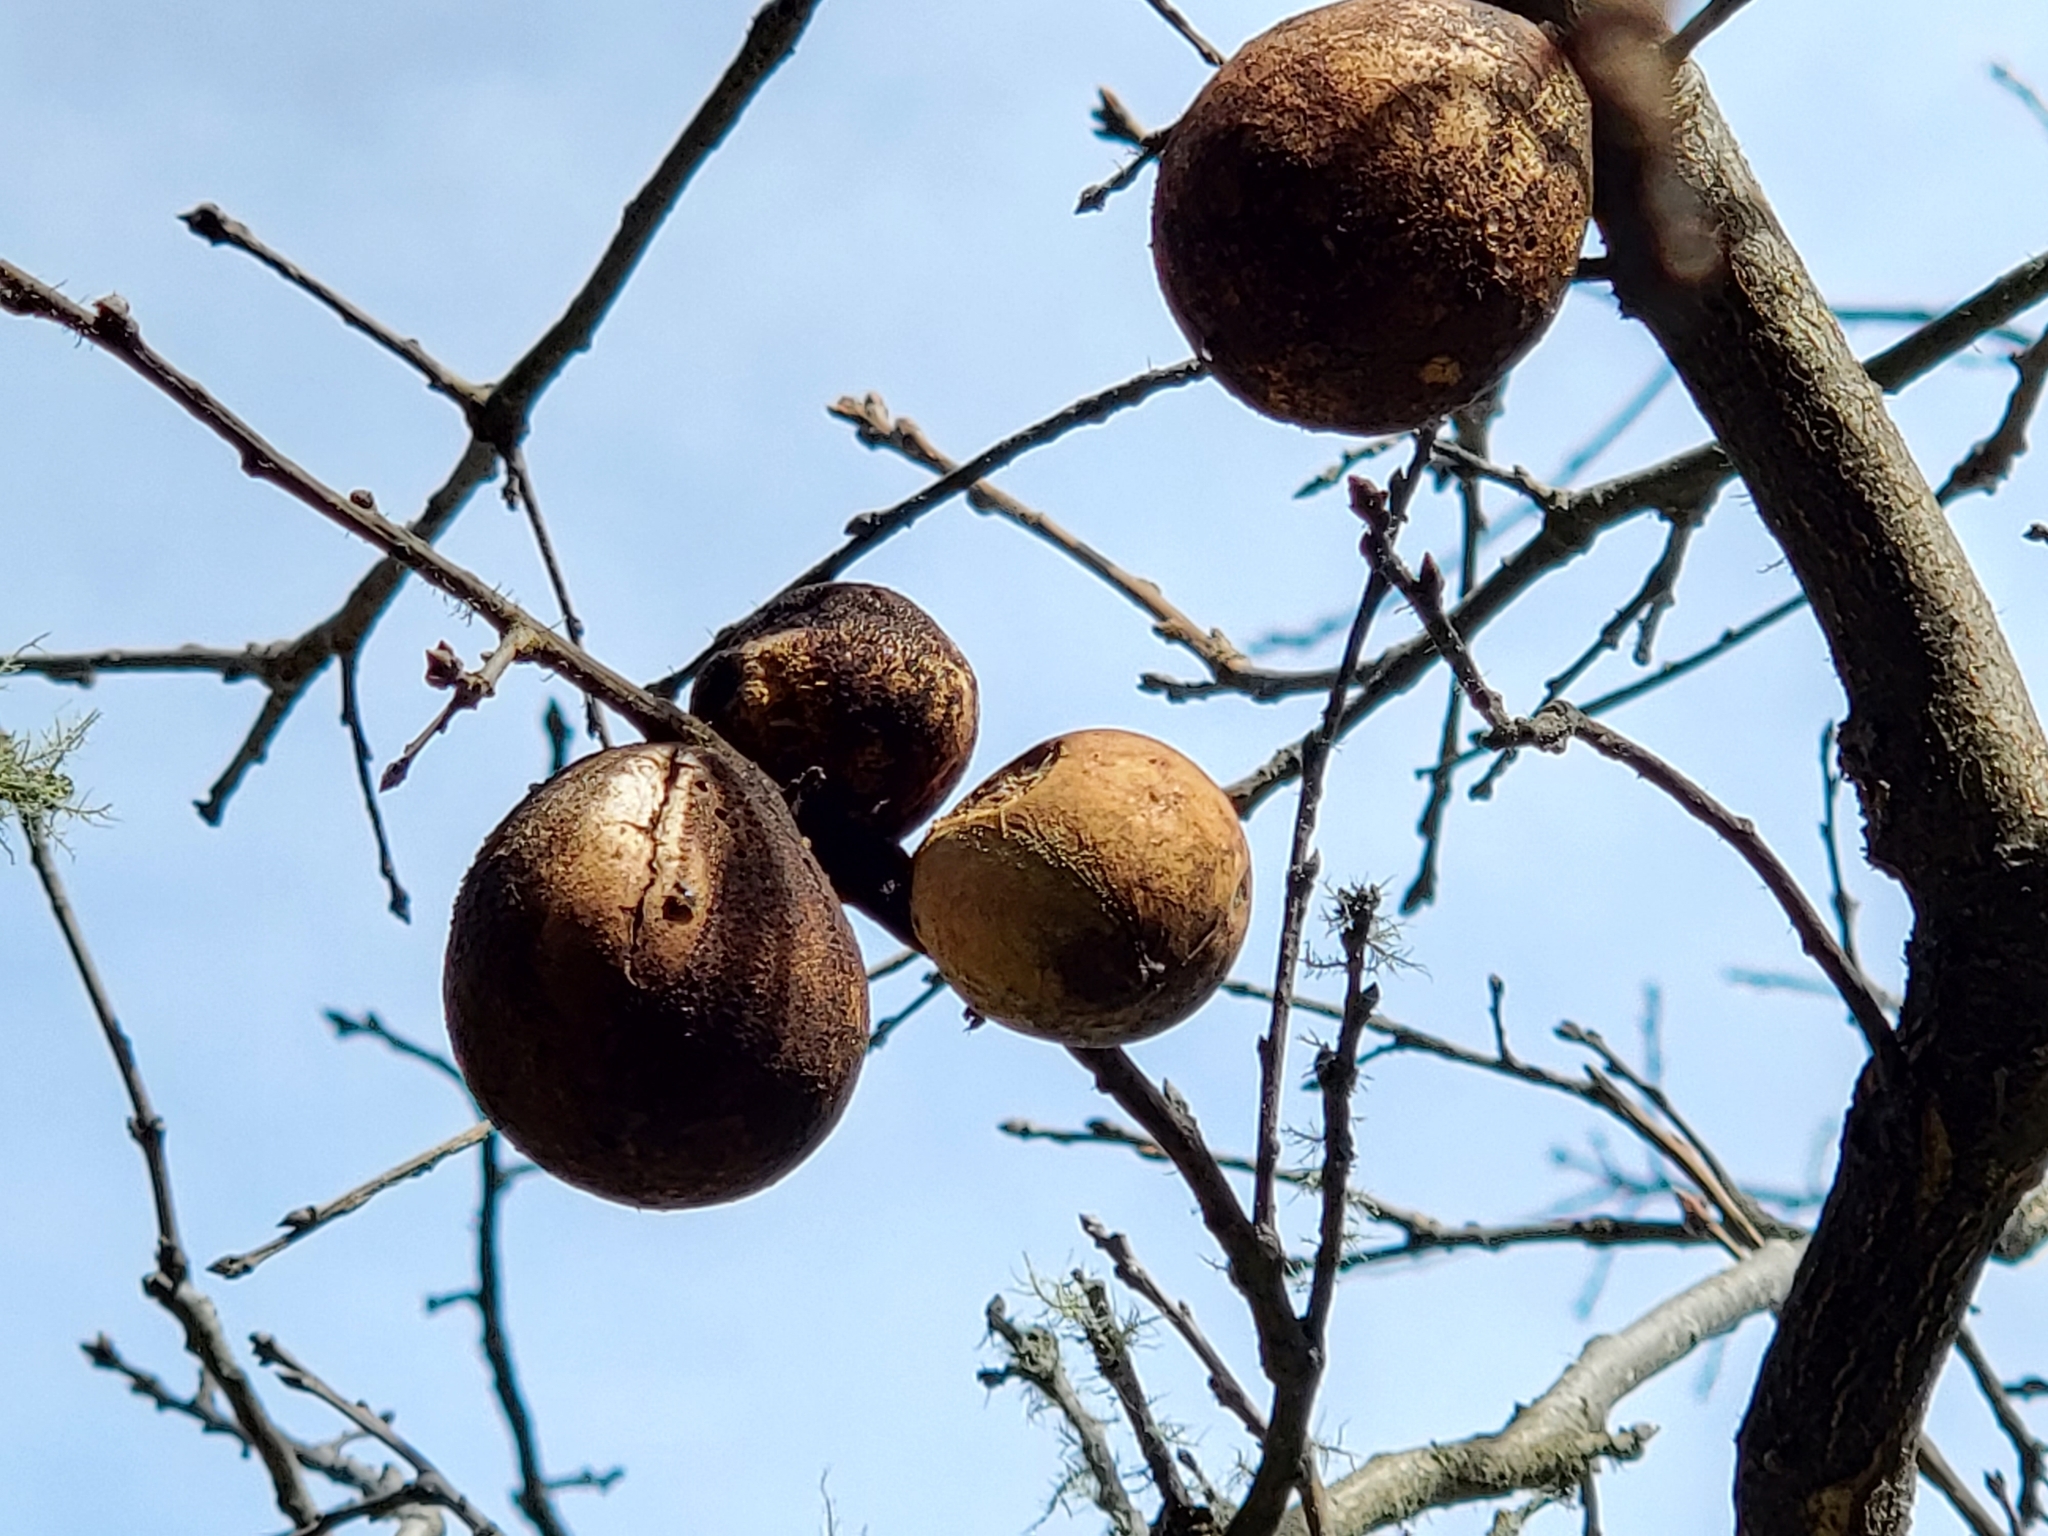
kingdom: Animalia
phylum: Arthropoda
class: Insecta
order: Hymenoptera
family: Cynipidae
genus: Andricus
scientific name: Andricus quercuscalifornicus
